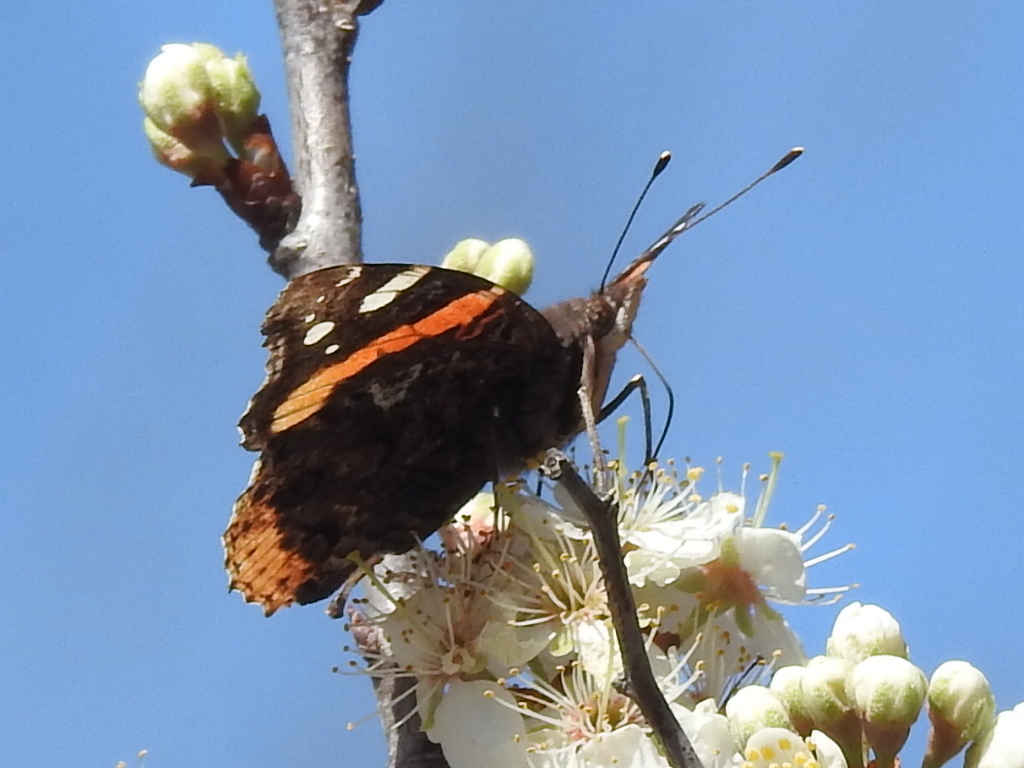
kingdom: Animalia
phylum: Arthropoda
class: Insecta
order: Lepidoptera
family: Nymphalidae
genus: Vanessa
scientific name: Vanessa atalanta
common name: Red admiral
